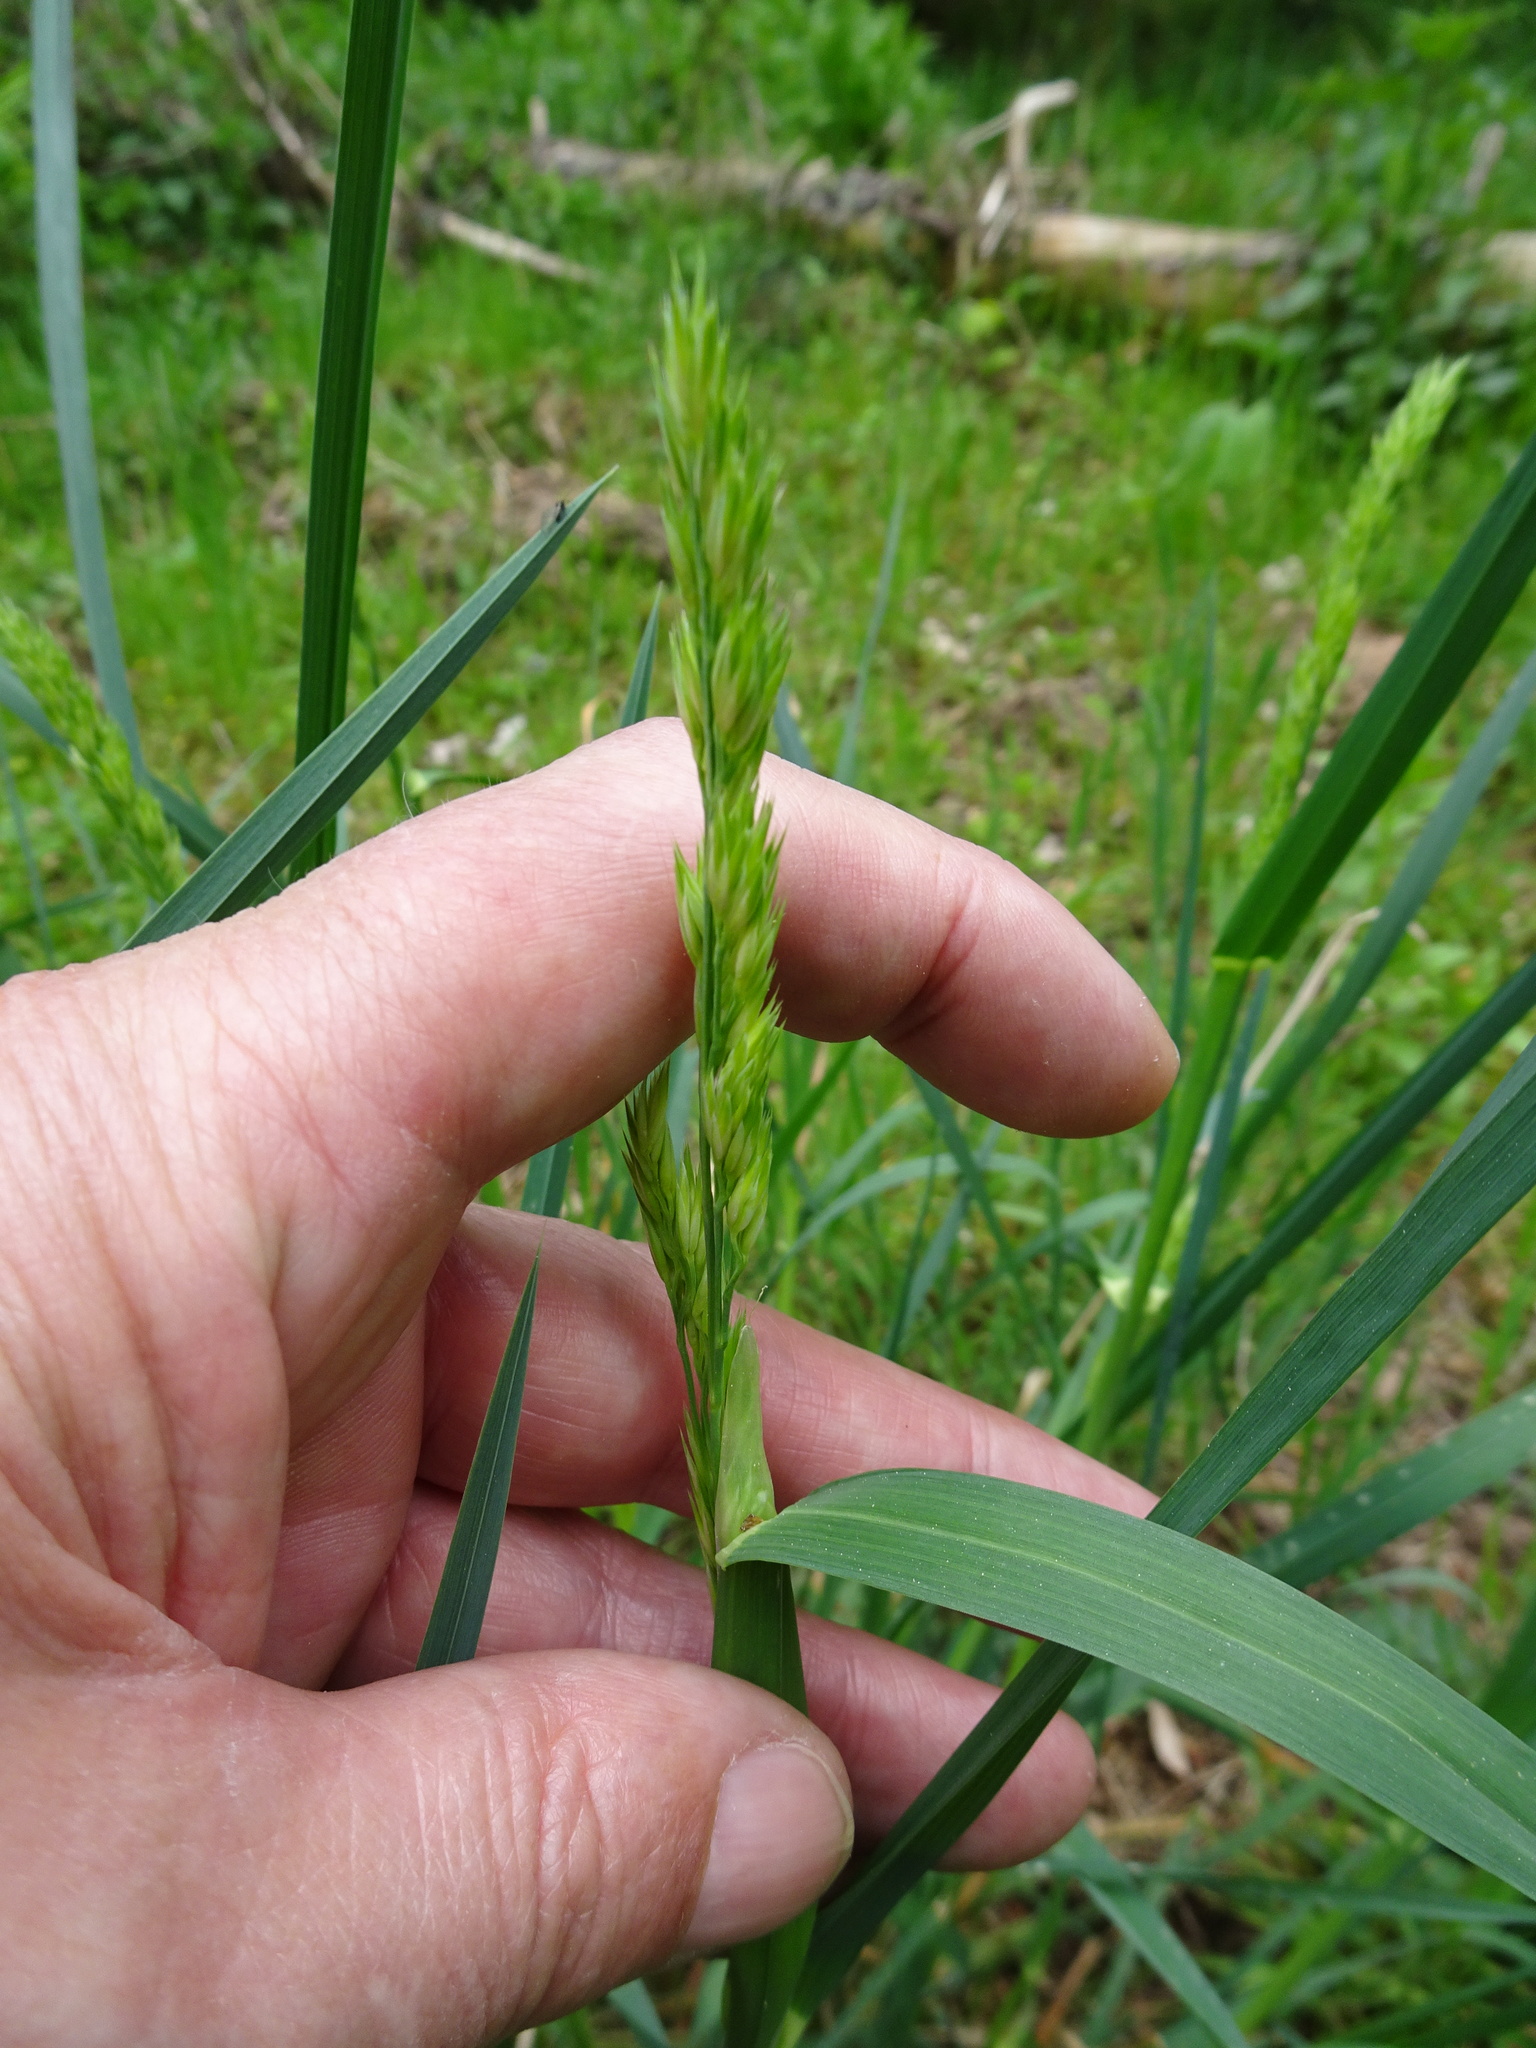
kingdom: Plantae
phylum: Tracheophyta
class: Liliopsida
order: Poales
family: Poaceae
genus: Dactylis
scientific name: Dactylis glomerata
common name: Orchardgrass
